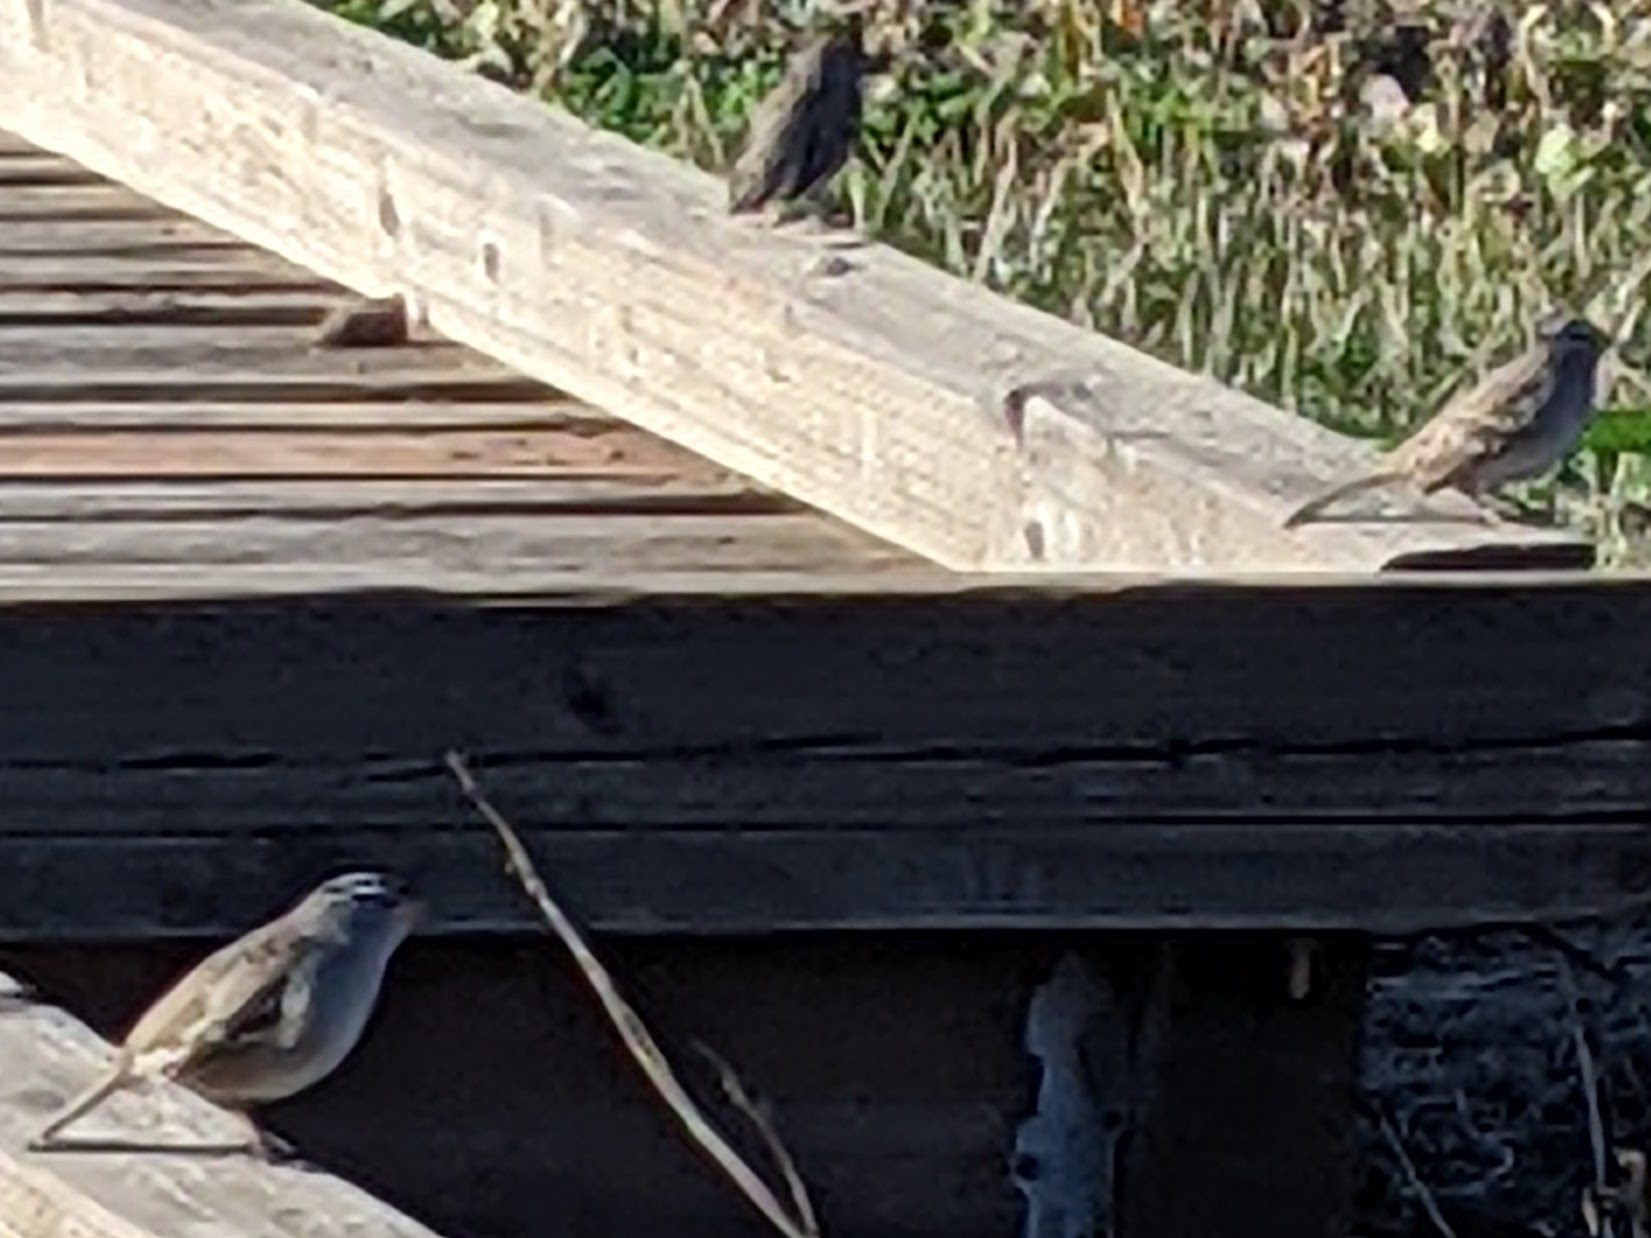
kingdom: Animalia
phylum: Chordata
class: Aves
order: Passeriformes
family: Passerellidae
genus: Zonotrichia
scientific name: Zonotrichia leucophrys
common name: White-crowned sparrow
